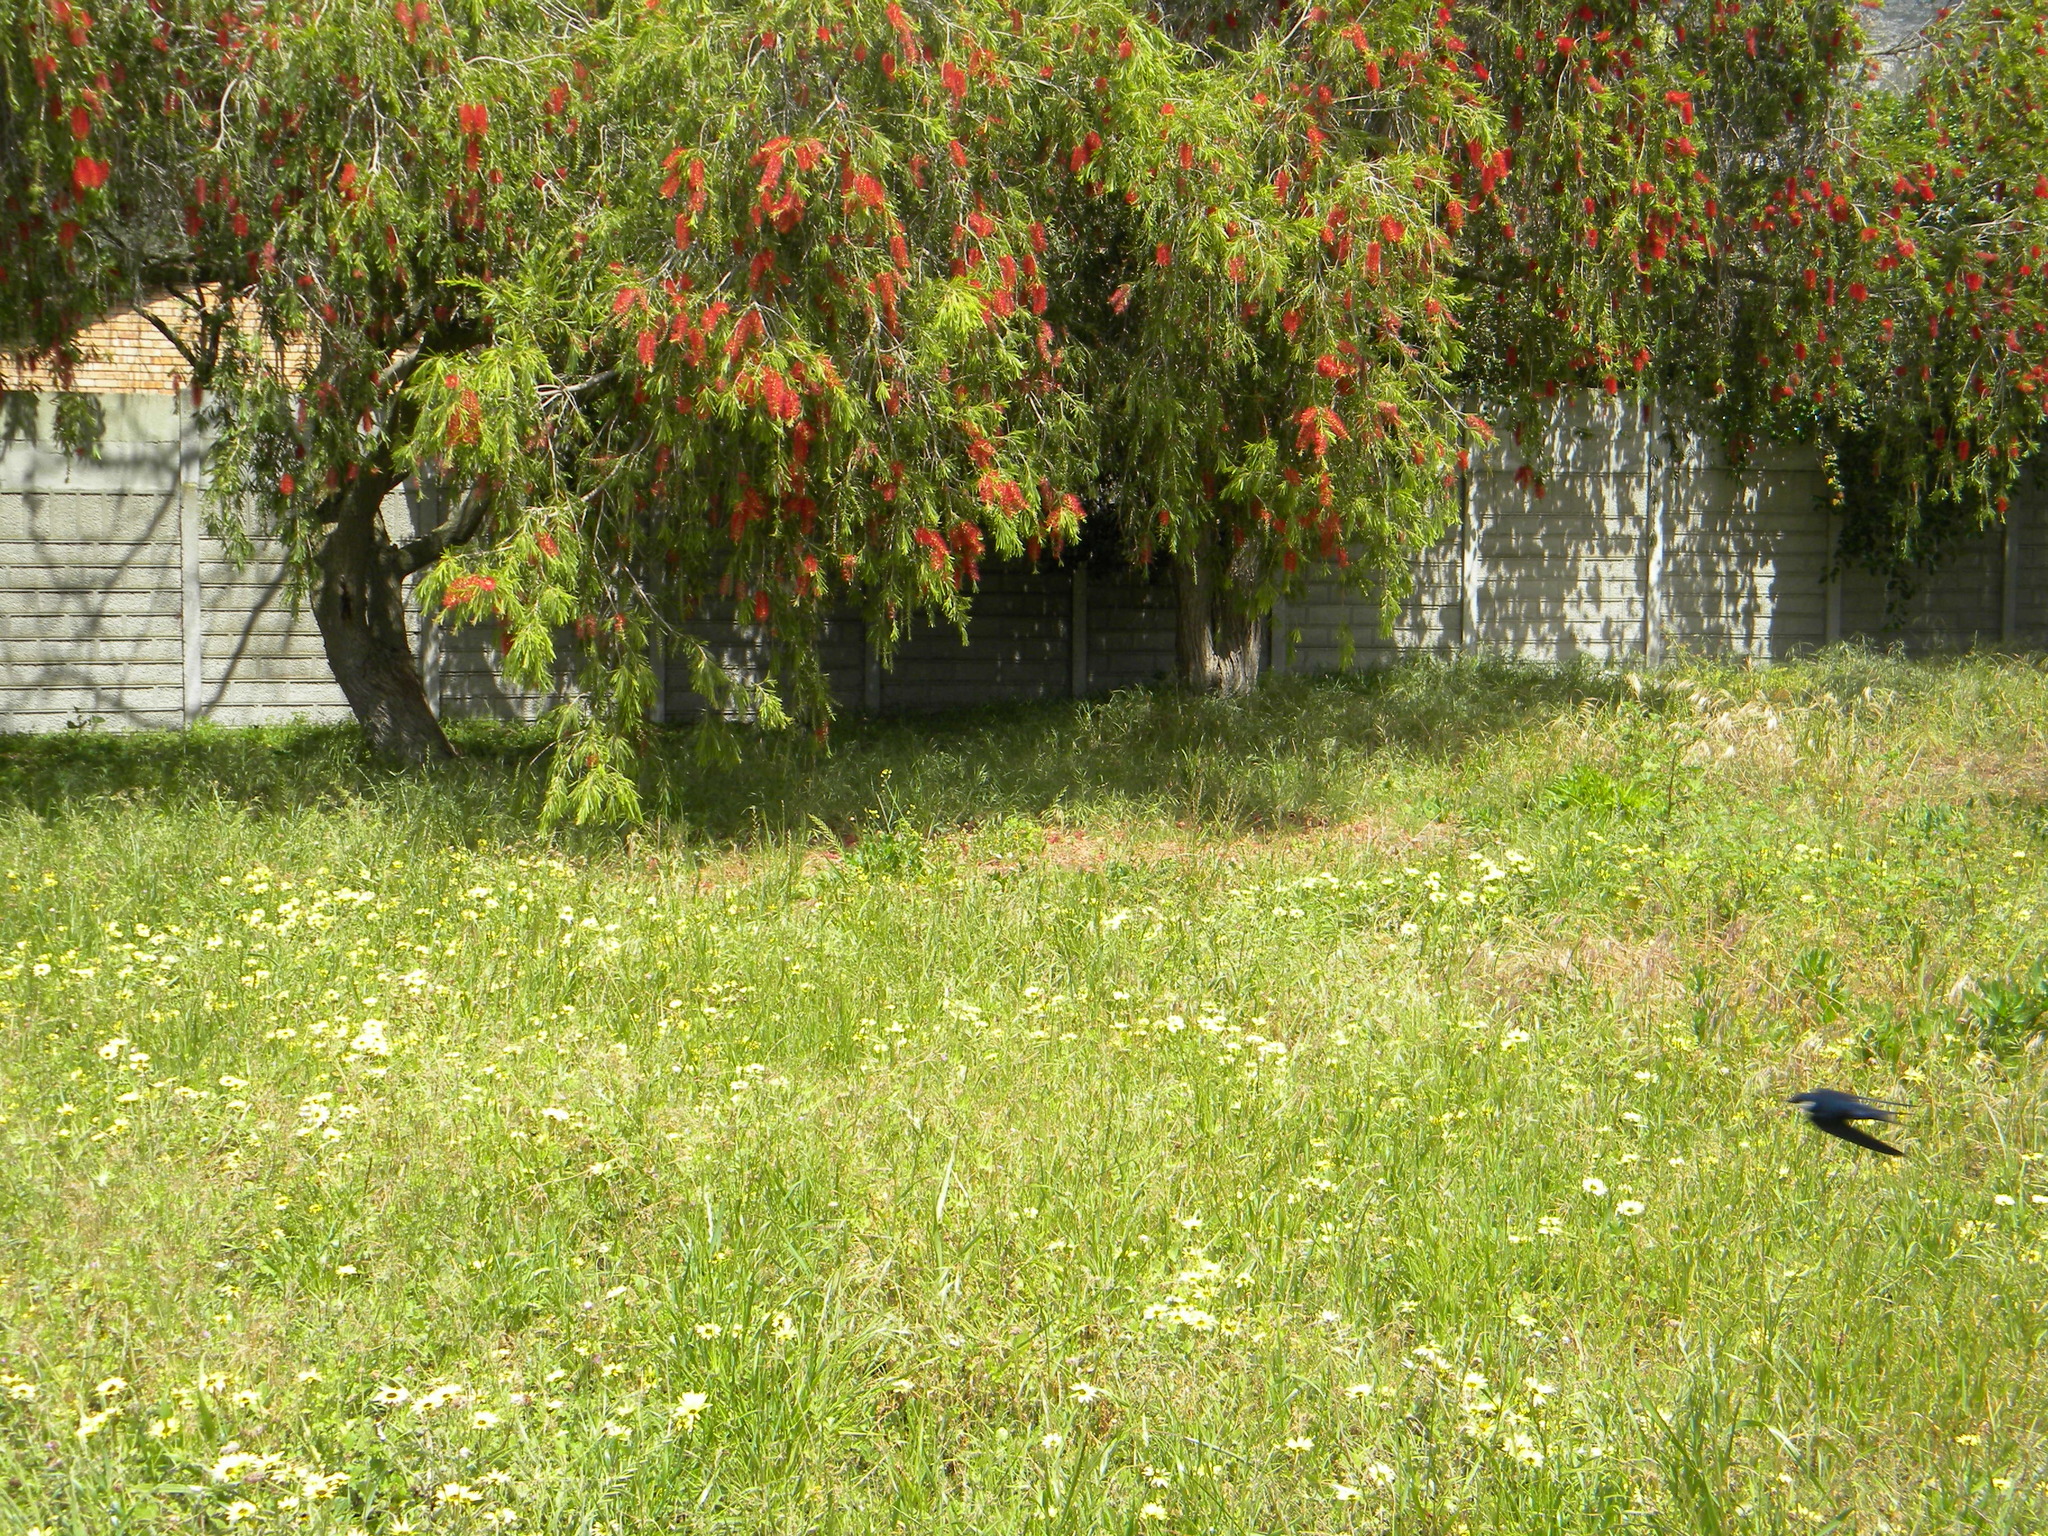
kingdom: Animalia
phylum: Chordata
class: Aves
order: Passeriformes
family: Hirundinidae
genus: Hirundo
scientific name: Hirundo albigularis
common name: White-throated swallow
